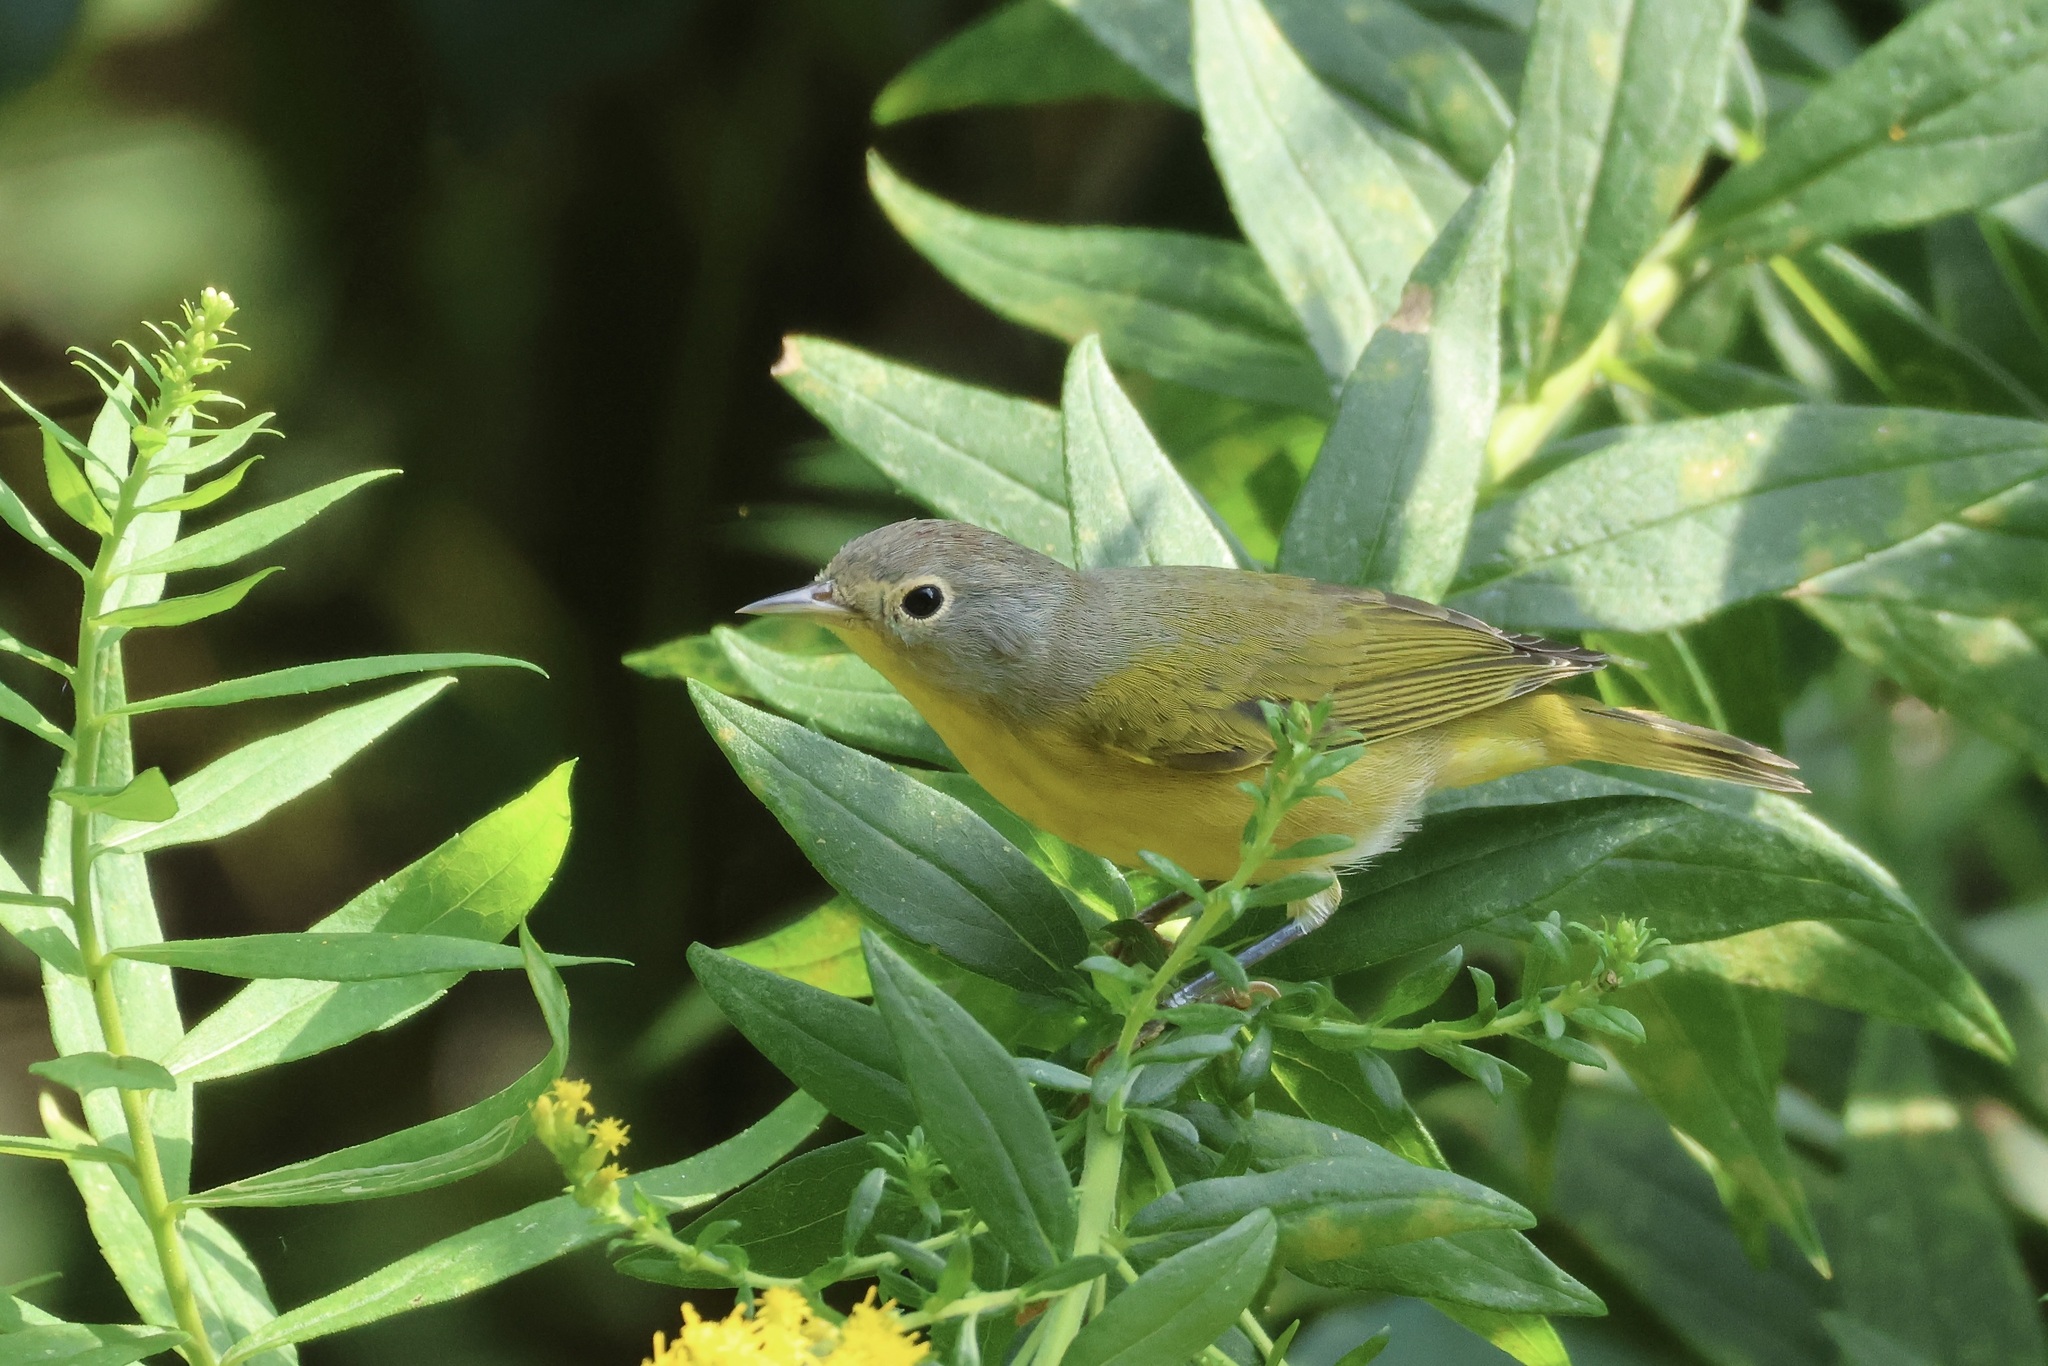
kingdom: Animalia
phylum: Chordata
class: Aves
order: Passeriformes
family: Parulidae
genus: Leiothlypis
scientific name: Leiothlypis ruficapilla
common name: Nashville warbler
